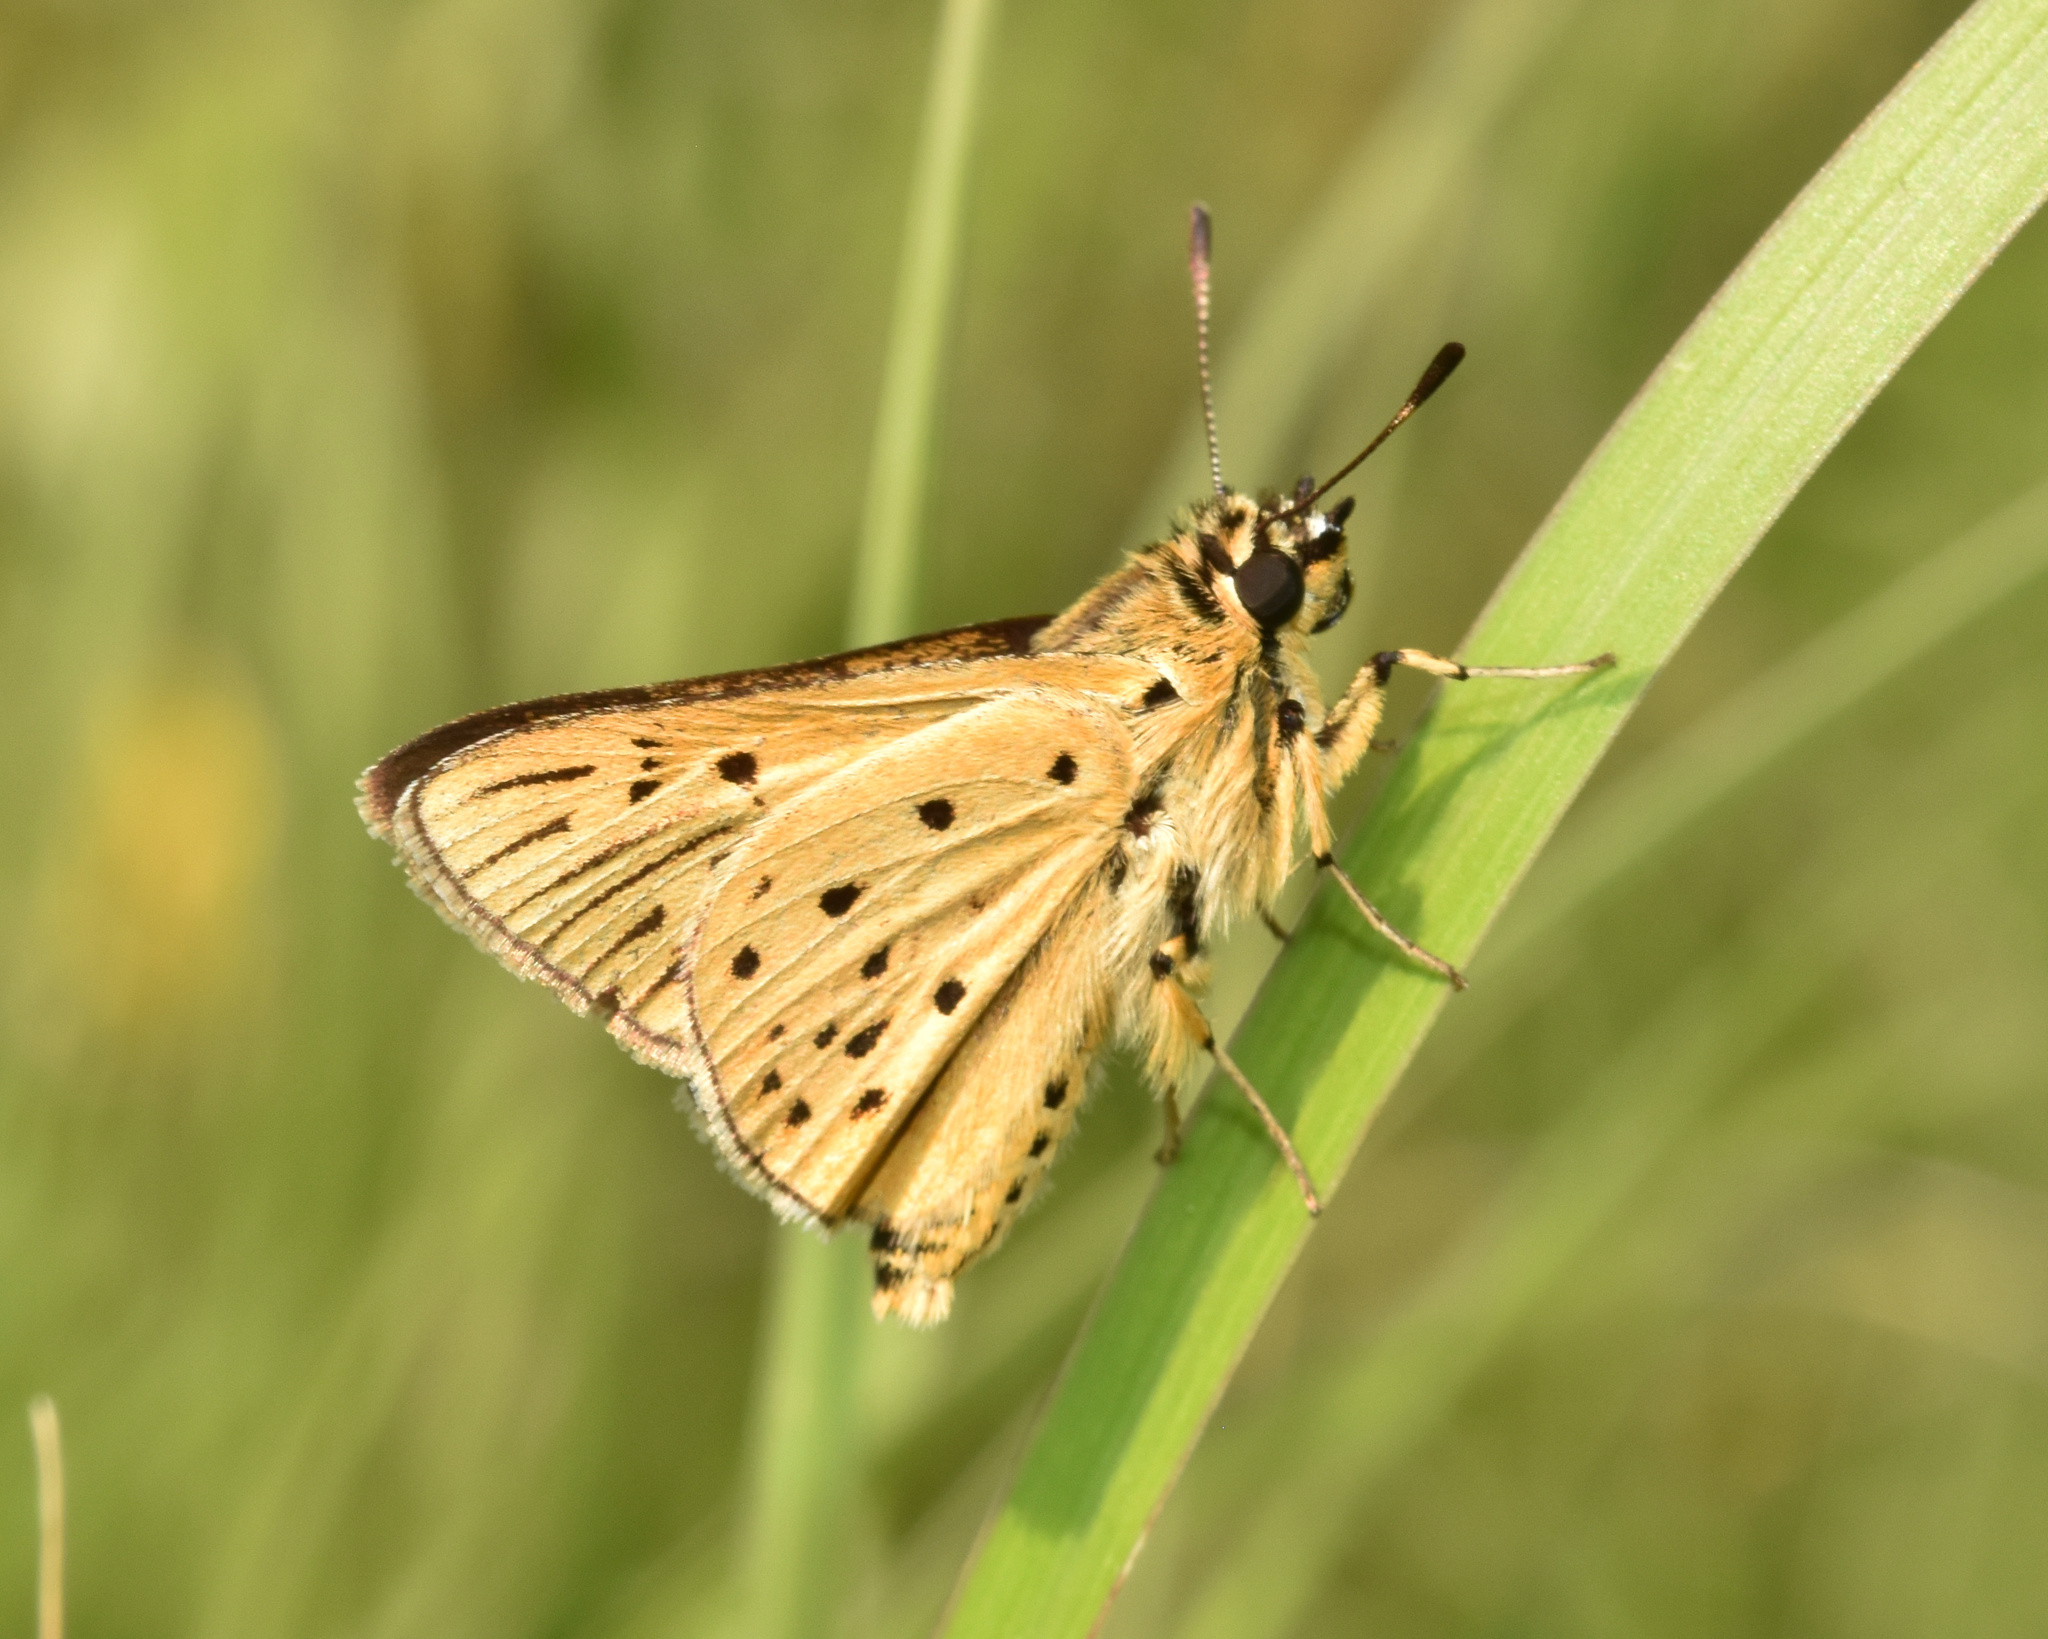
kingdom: Animalia
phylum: Arthropoda
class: Insecta
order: Lepidoptera
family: Hesperiidae
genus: Kedestes
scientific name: Kedestes lepenula
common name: Chequered ranger
